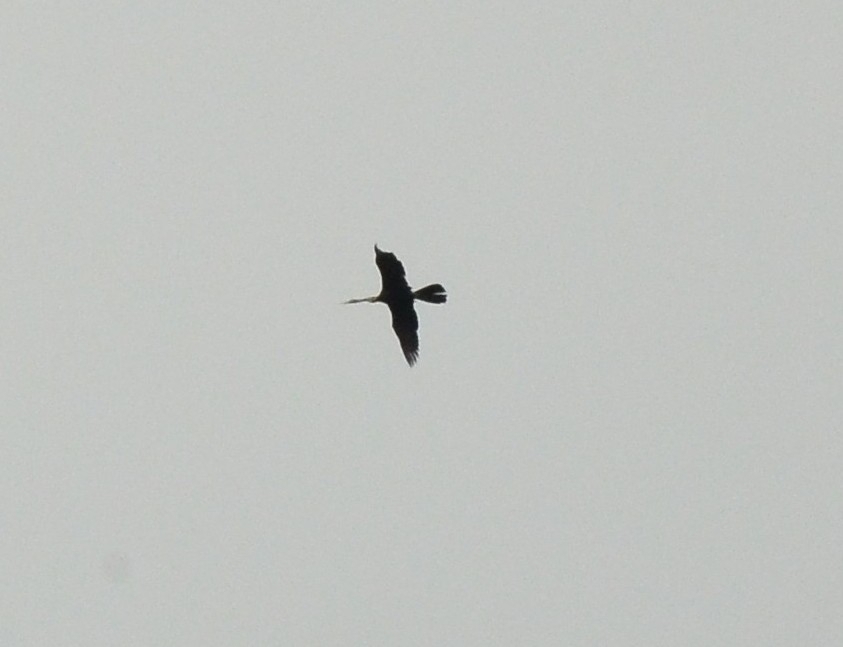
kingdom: Animalia
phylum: Chordata
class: Aves
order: Suliformes
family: Anhingidae
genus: Anhinga
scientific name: Anhinga melanogaster
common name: Oriental darter
